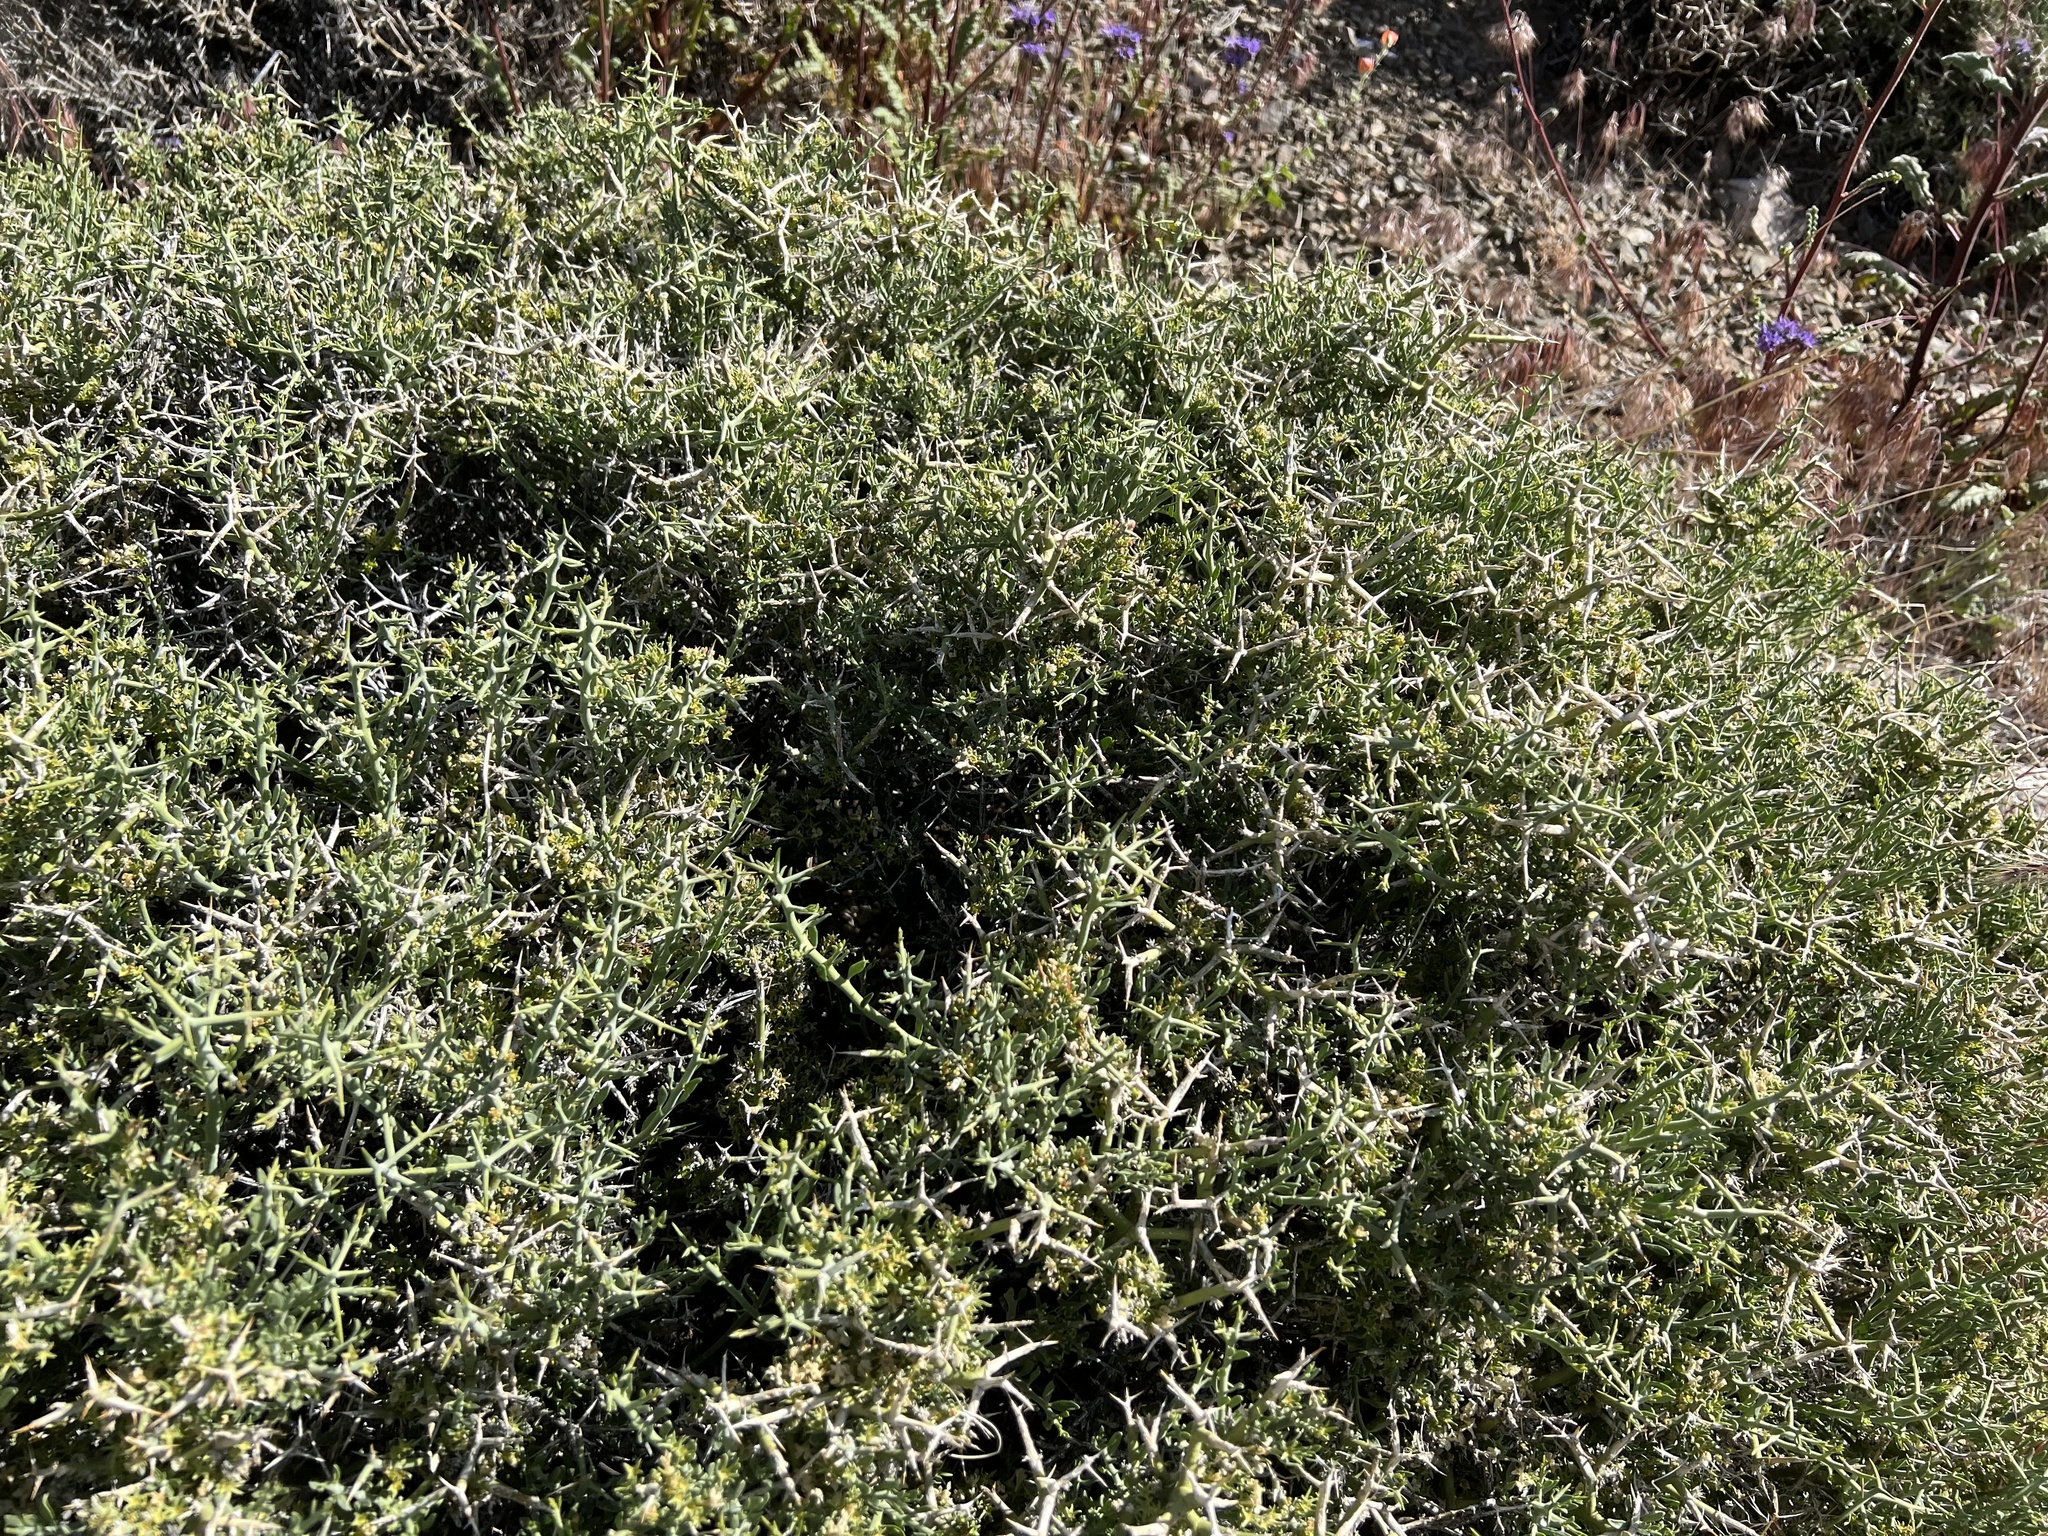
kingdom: Plantae
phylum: Tracheophyta
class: Magnoliopsida
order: Lamiales
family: Oleaceae
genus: Menodora
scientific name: Menodora spinescens
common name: Spiny menodora
